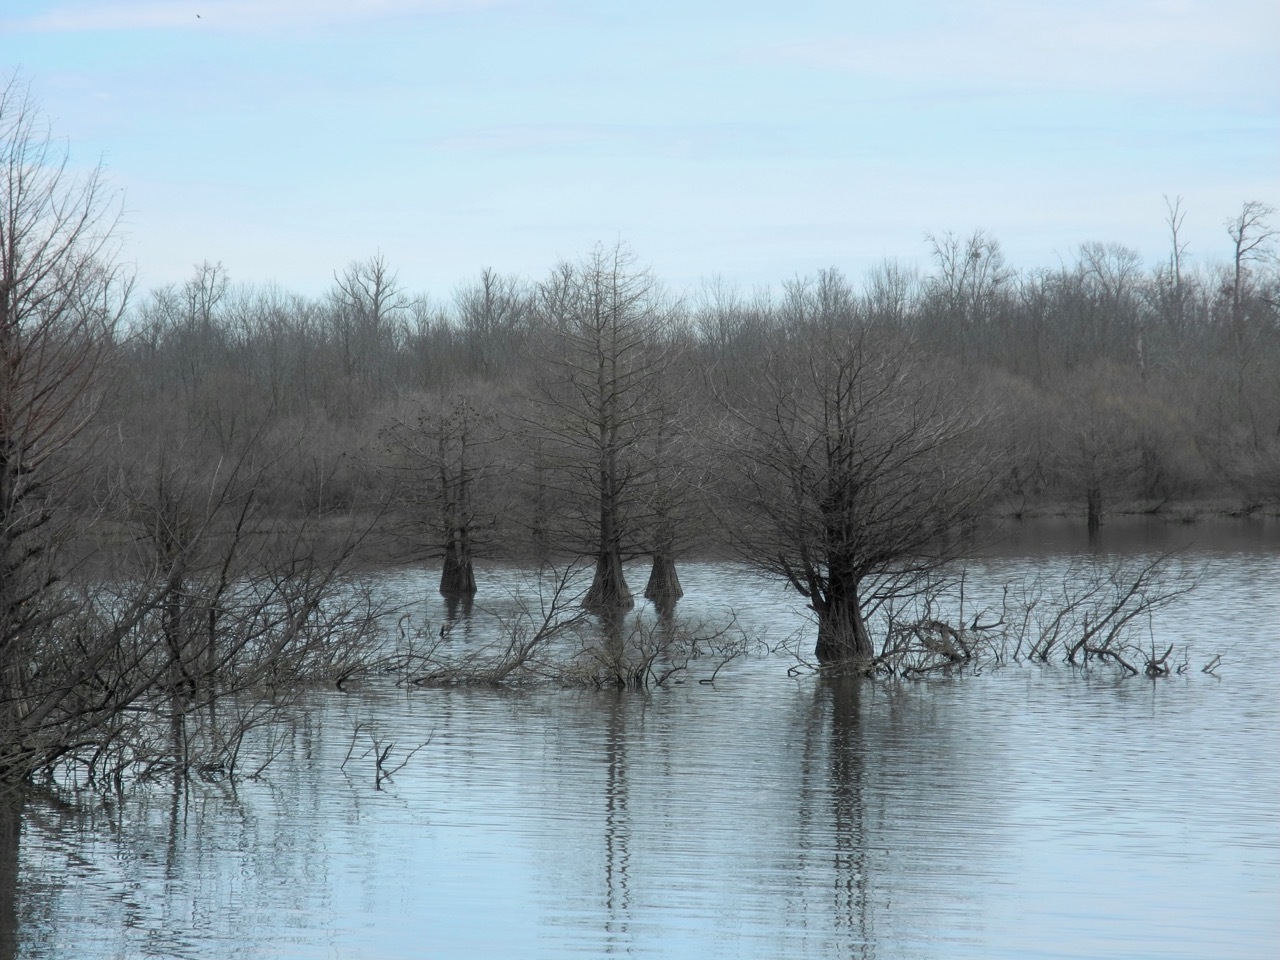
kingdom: Plantae
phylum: Tracheophyta
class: Pinopsida
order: Pinales
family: Cupressaceae
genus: Taxodium
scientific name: Taxodium distichum
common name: Bald cypress
